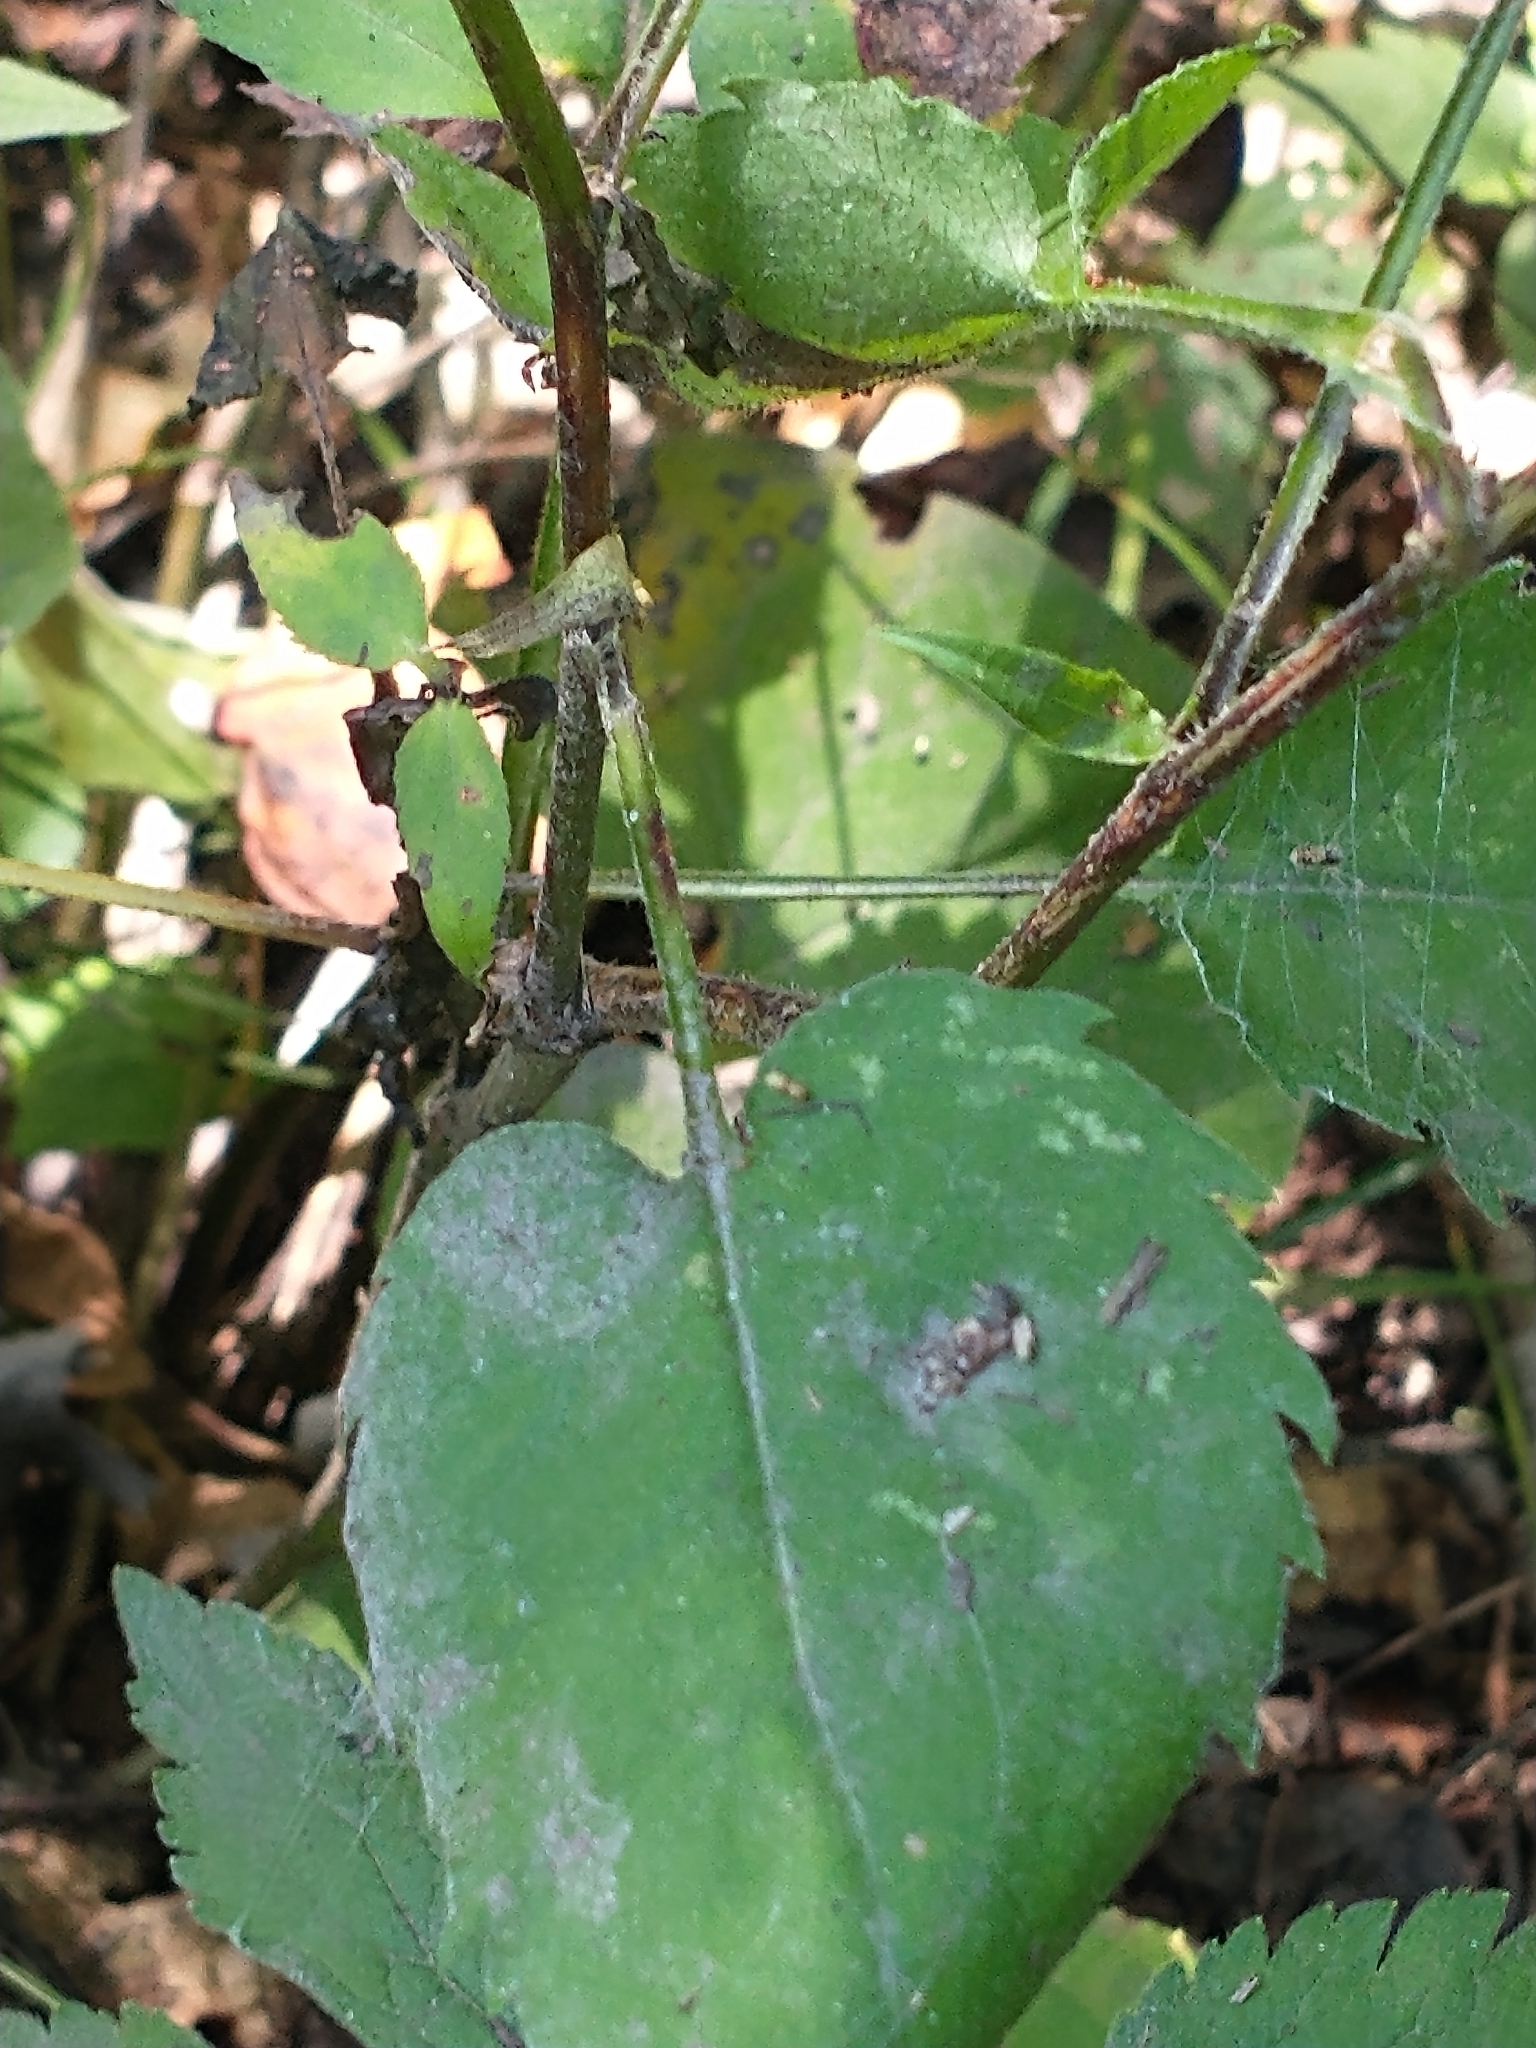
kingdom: Plantae
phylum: Tracheophyta
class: Magnoliopsida
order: Asterales
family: Asteraceae
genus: Symphyotrichum
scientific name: Symphyotrichum cordifolium
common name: Beeweed
